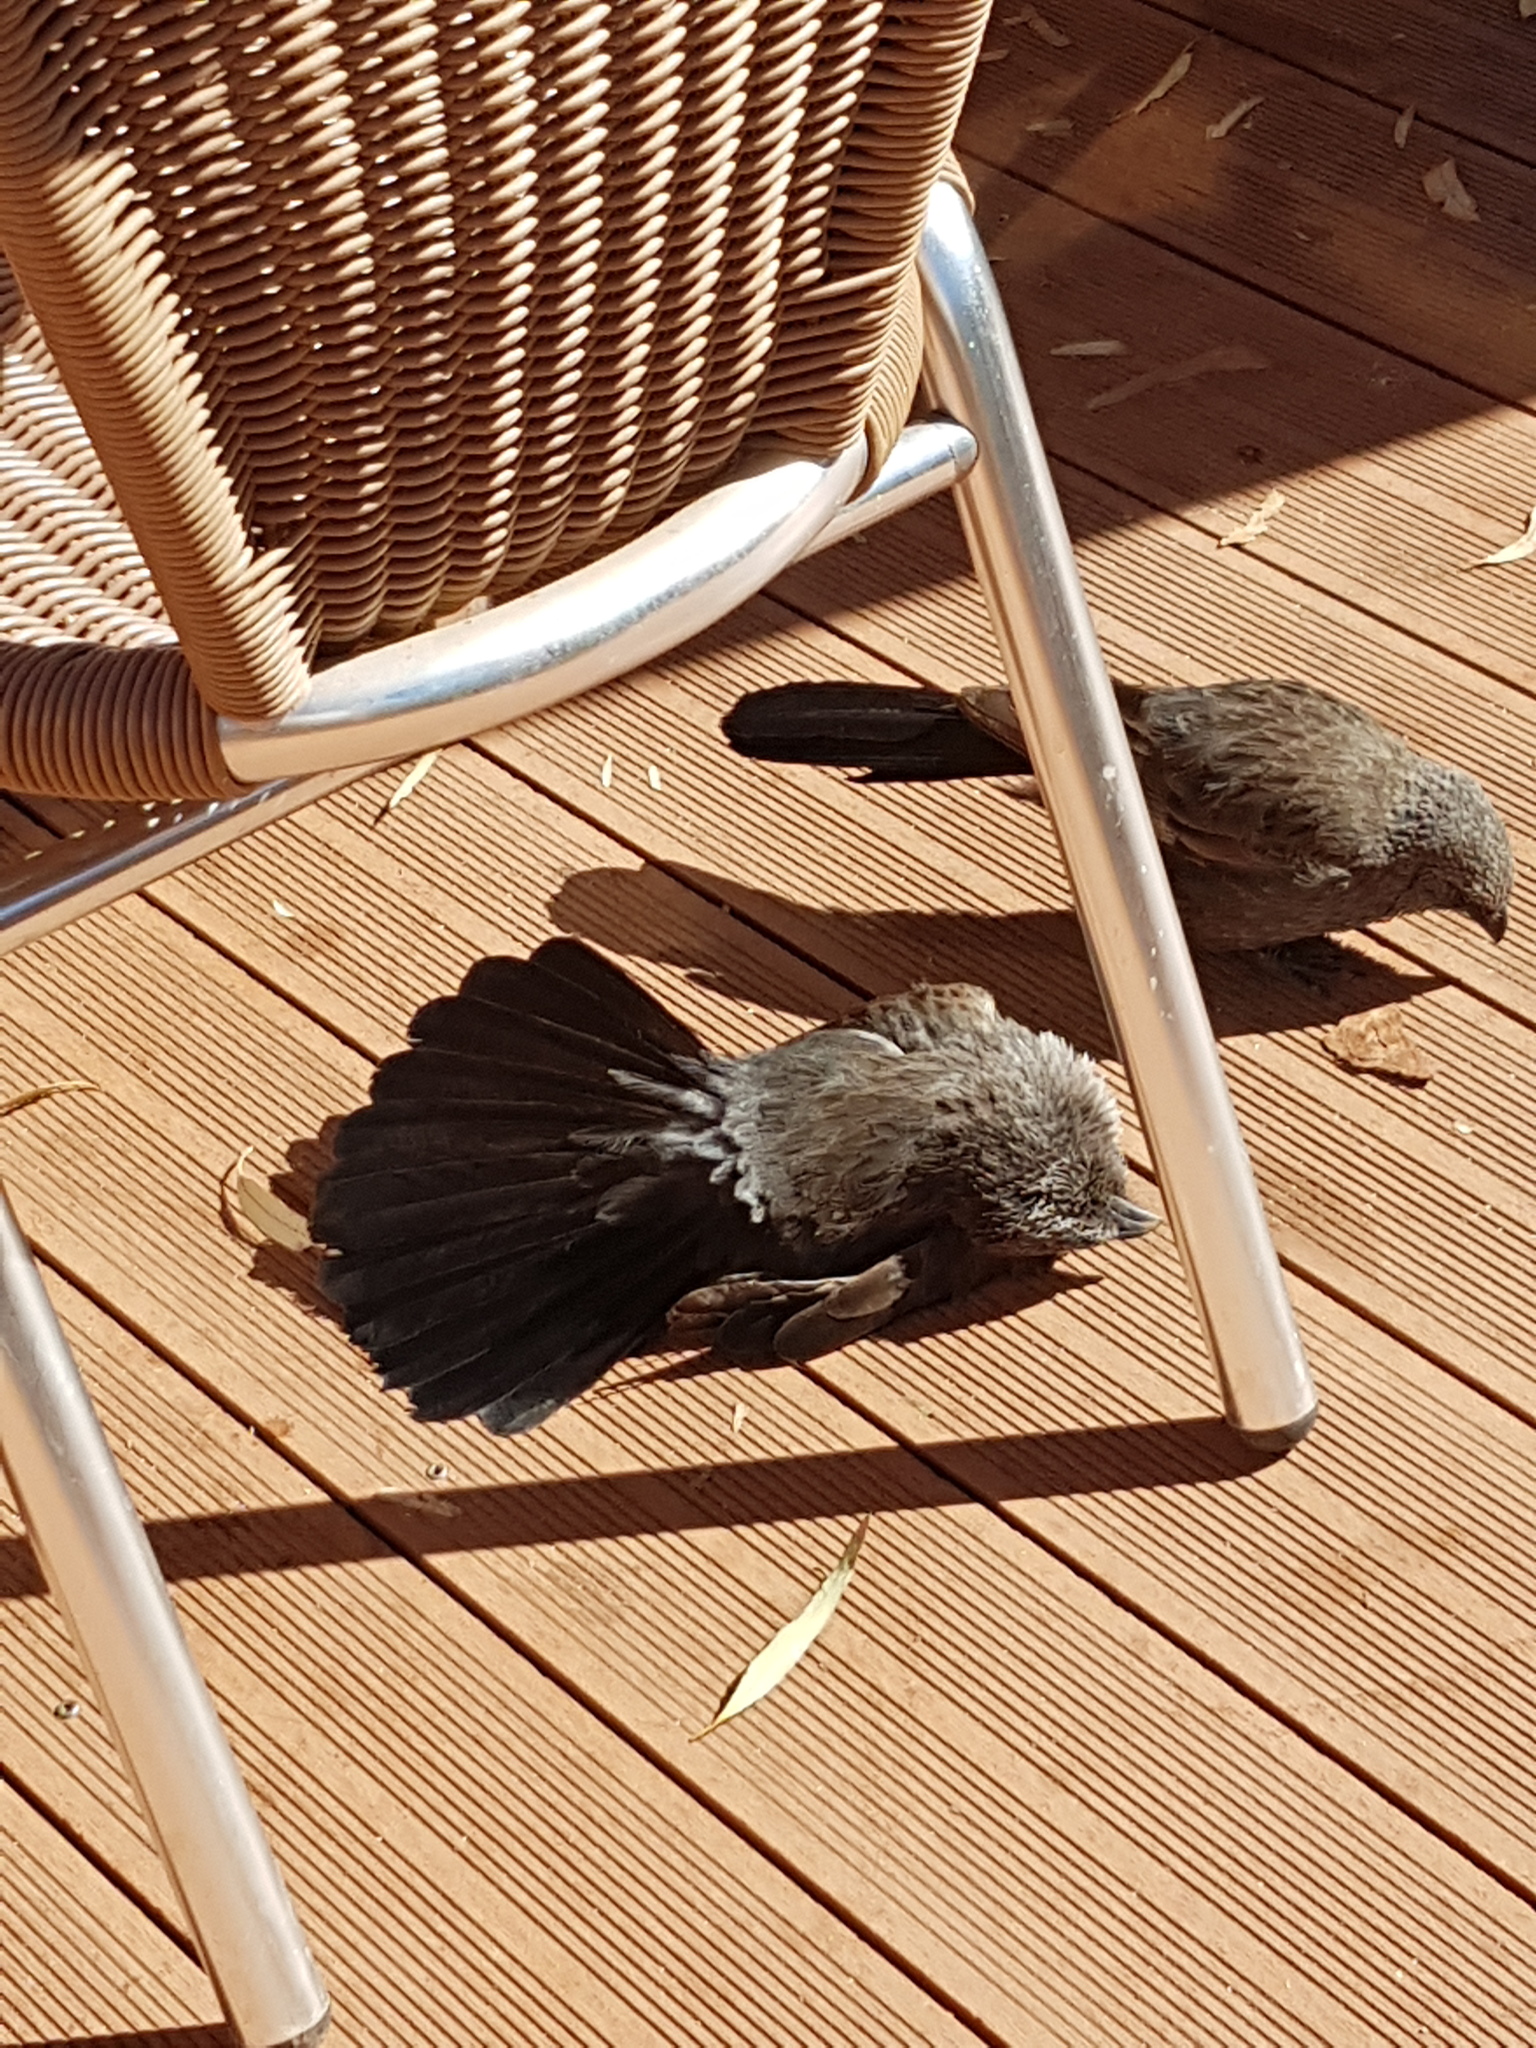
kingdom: Animalia
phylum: Chordata
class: Aves
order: Passeriformes
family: Corcoracidae
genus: Struthidea
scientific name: Struthidea cinerea
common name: Apostlebird
